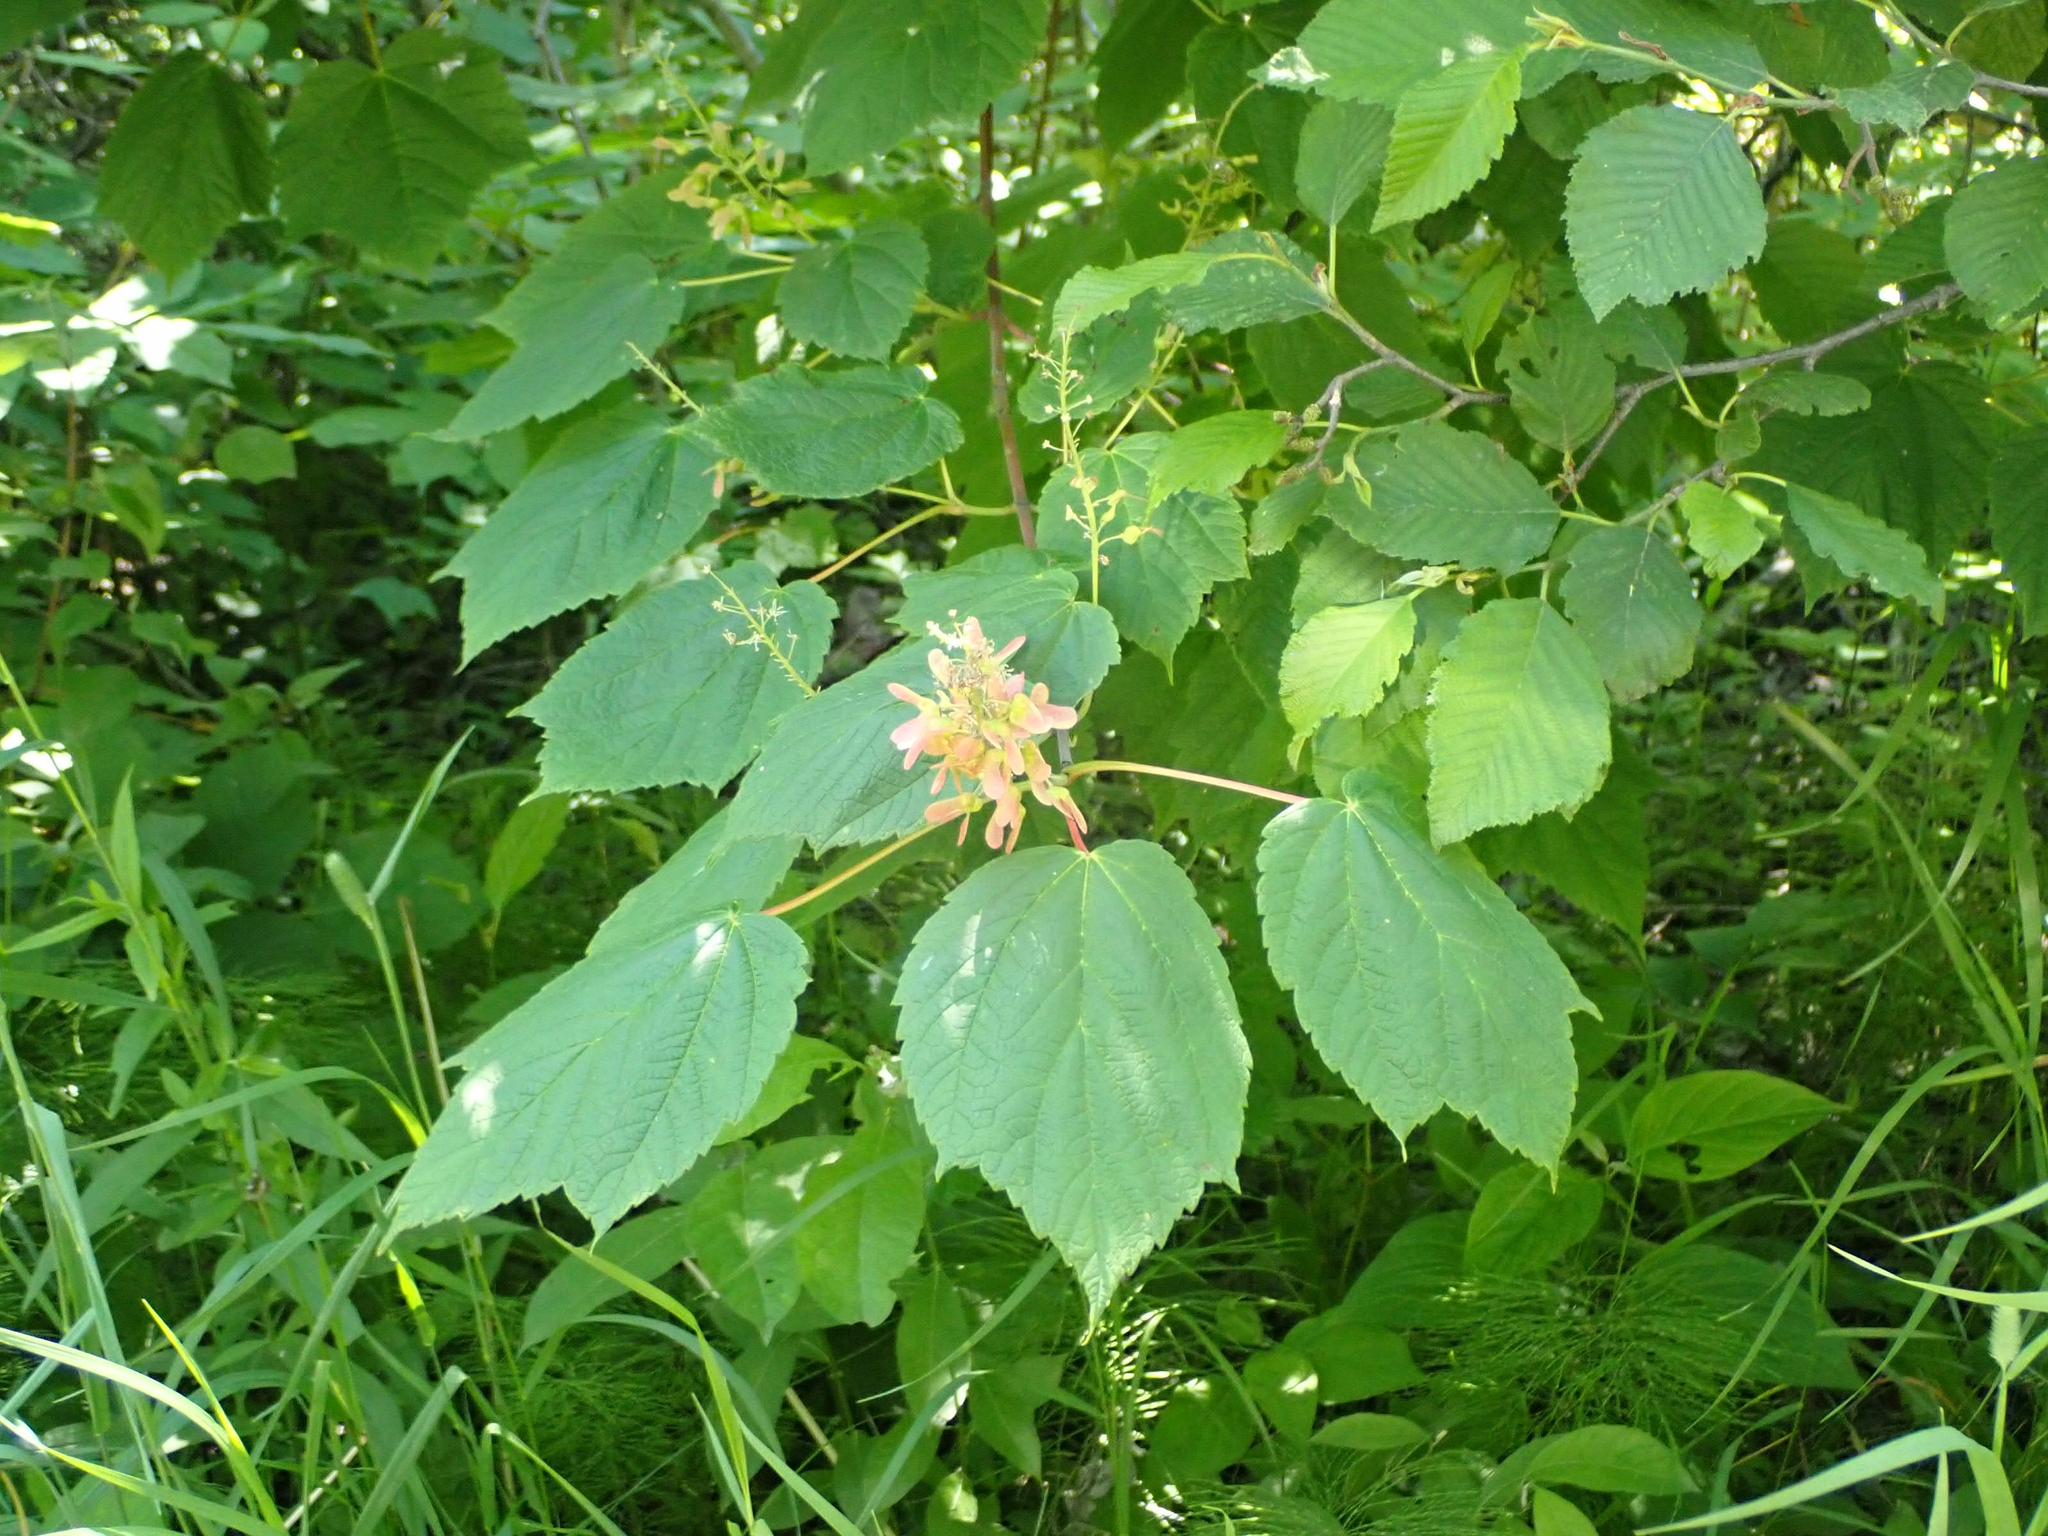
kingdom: Plantae
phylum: Tracheophyta
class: Magnoliopsida
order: Sapindales
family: Sapindaceae
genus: Acer
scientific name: Acer spicatum
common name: Mountain maple
